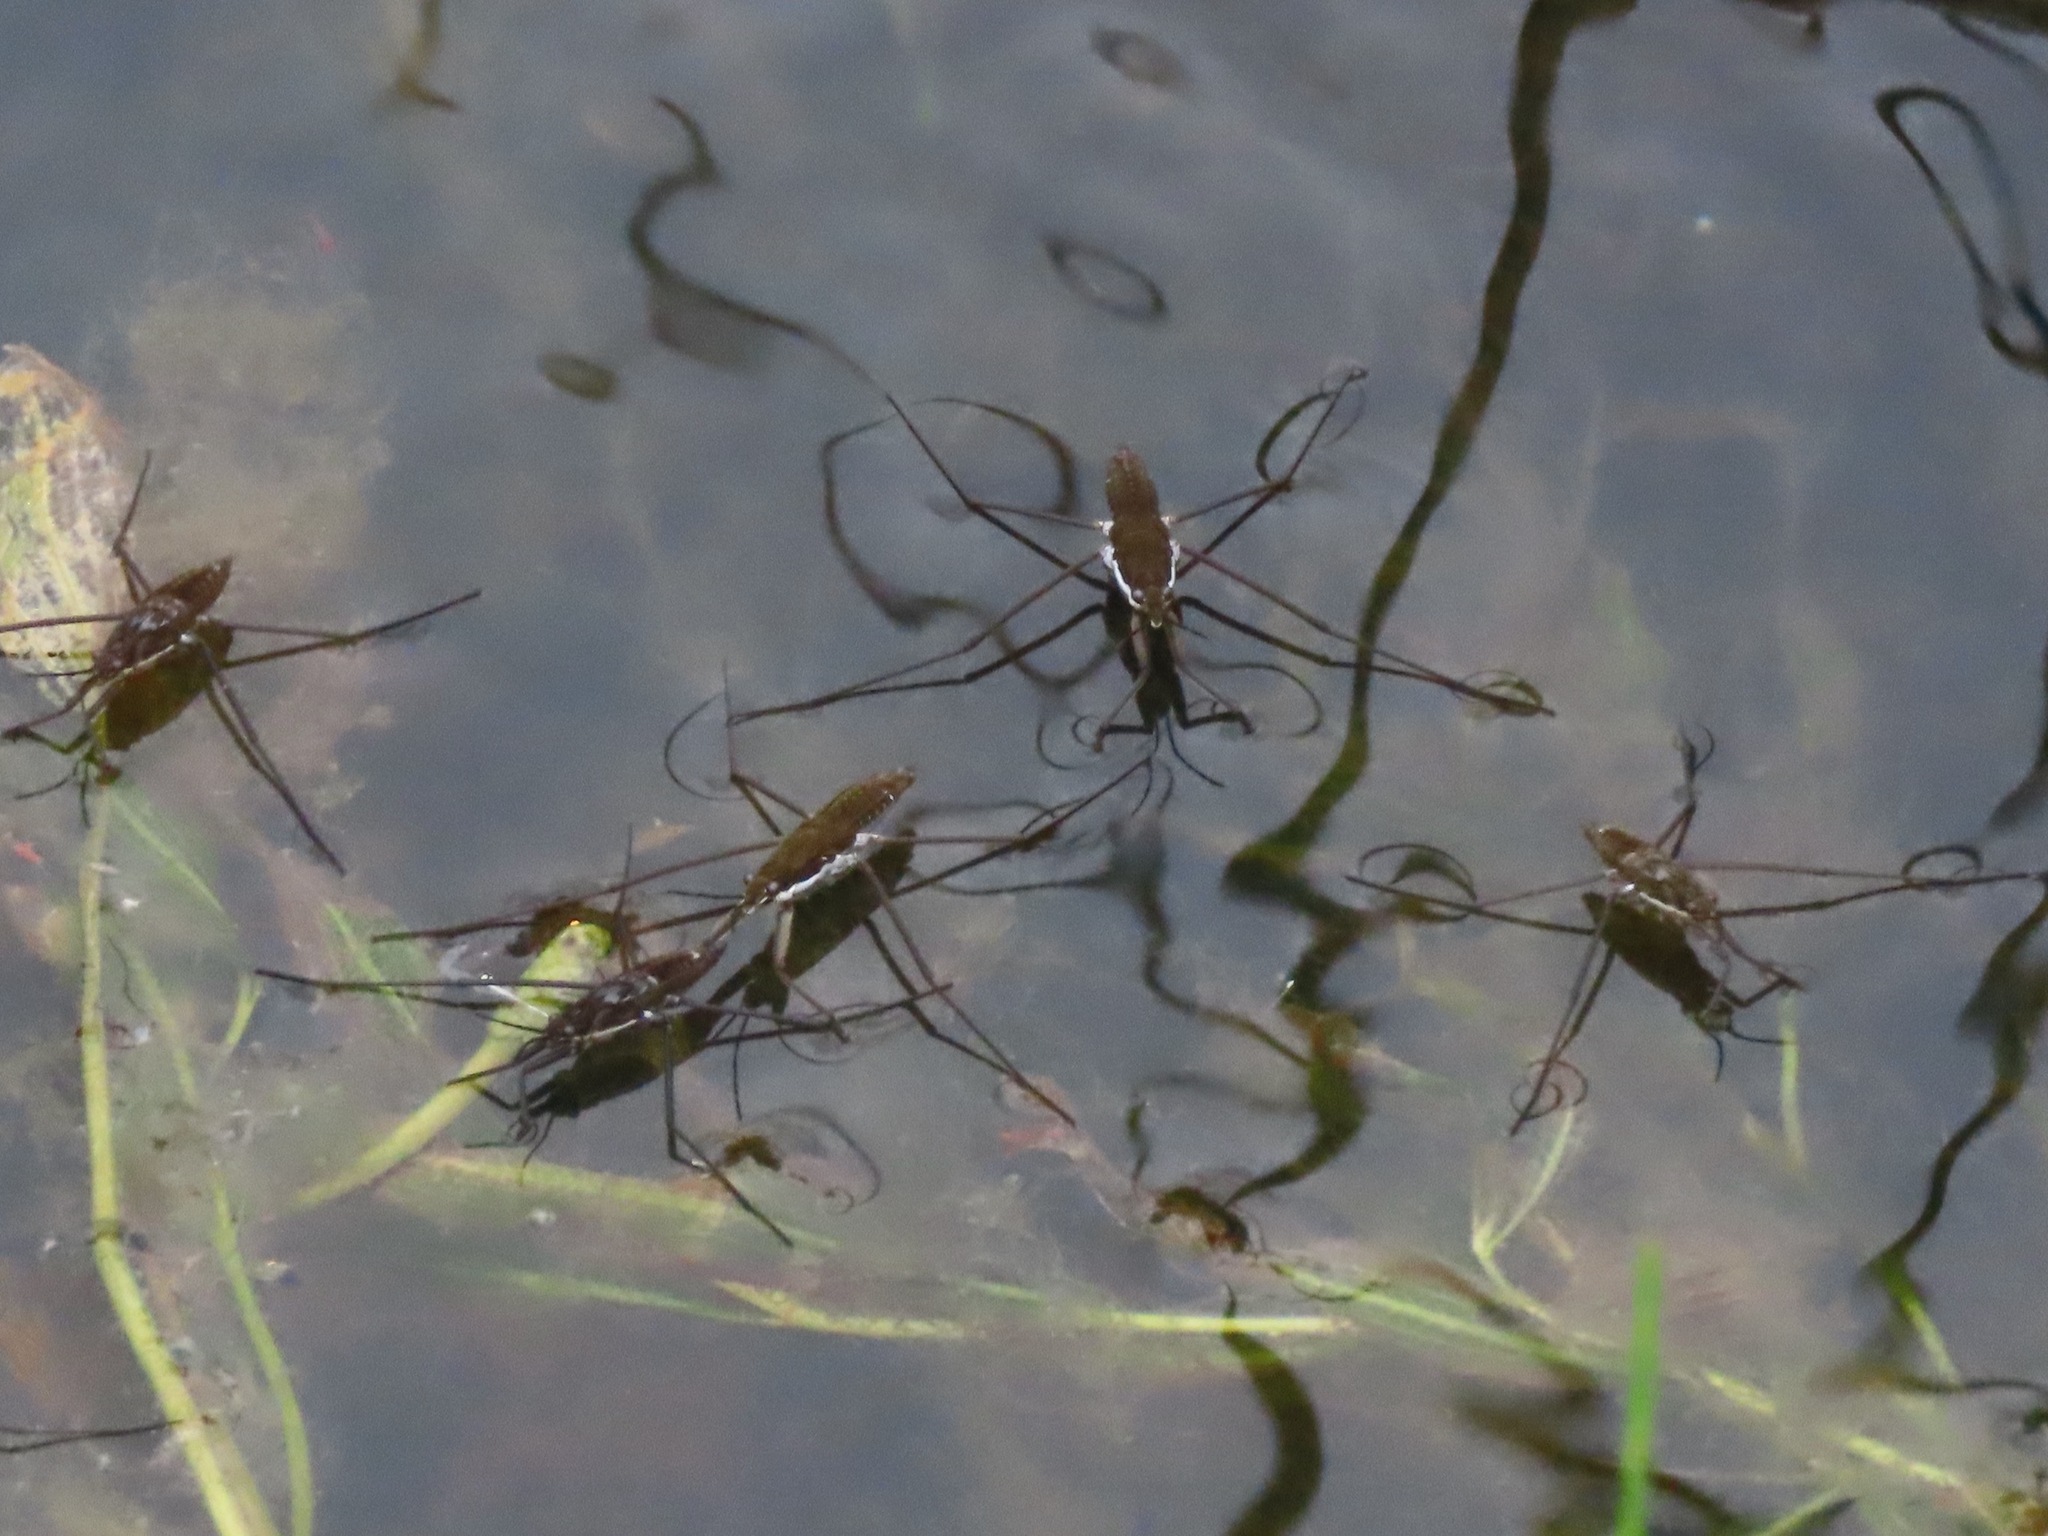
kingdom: Animalia
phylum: Arthropoda
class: Insecta
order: Hemiptera
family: Gerridae
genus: Aquarius
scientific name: Aquarius remigis
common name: Common water strider
